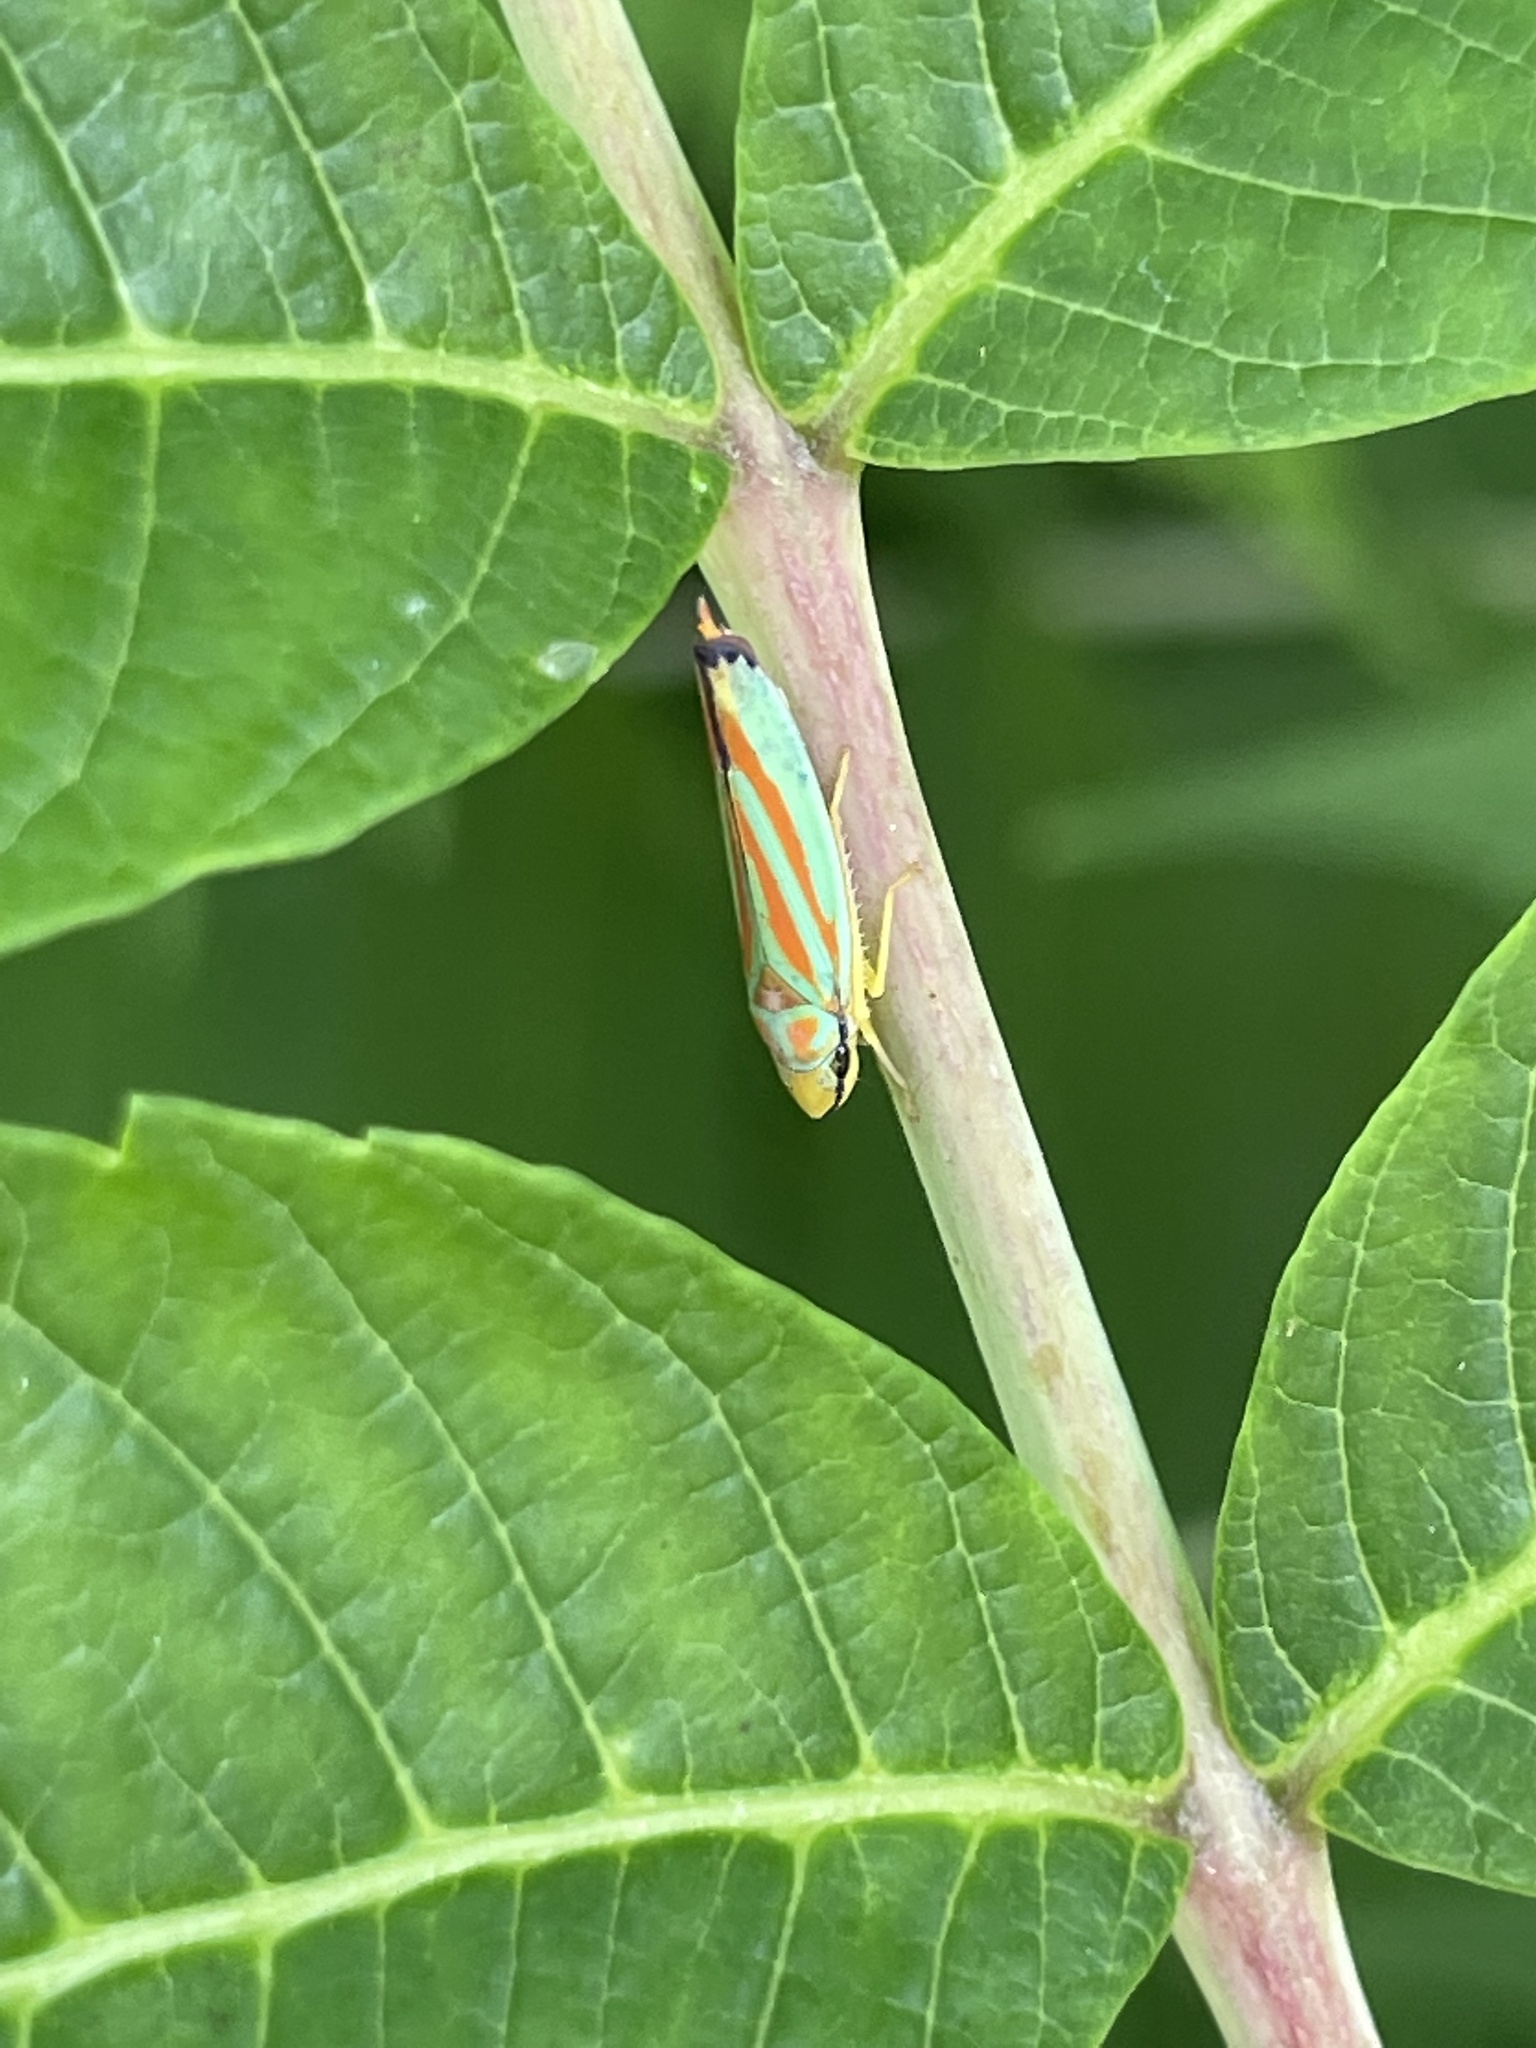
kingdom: Animalia
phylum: Arthropoda
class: Insecta
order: Hemiptera
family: Cicadellidae
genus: Graphocephala
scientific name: Graphocephala fennahi
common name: Rhododendron leafhopper
